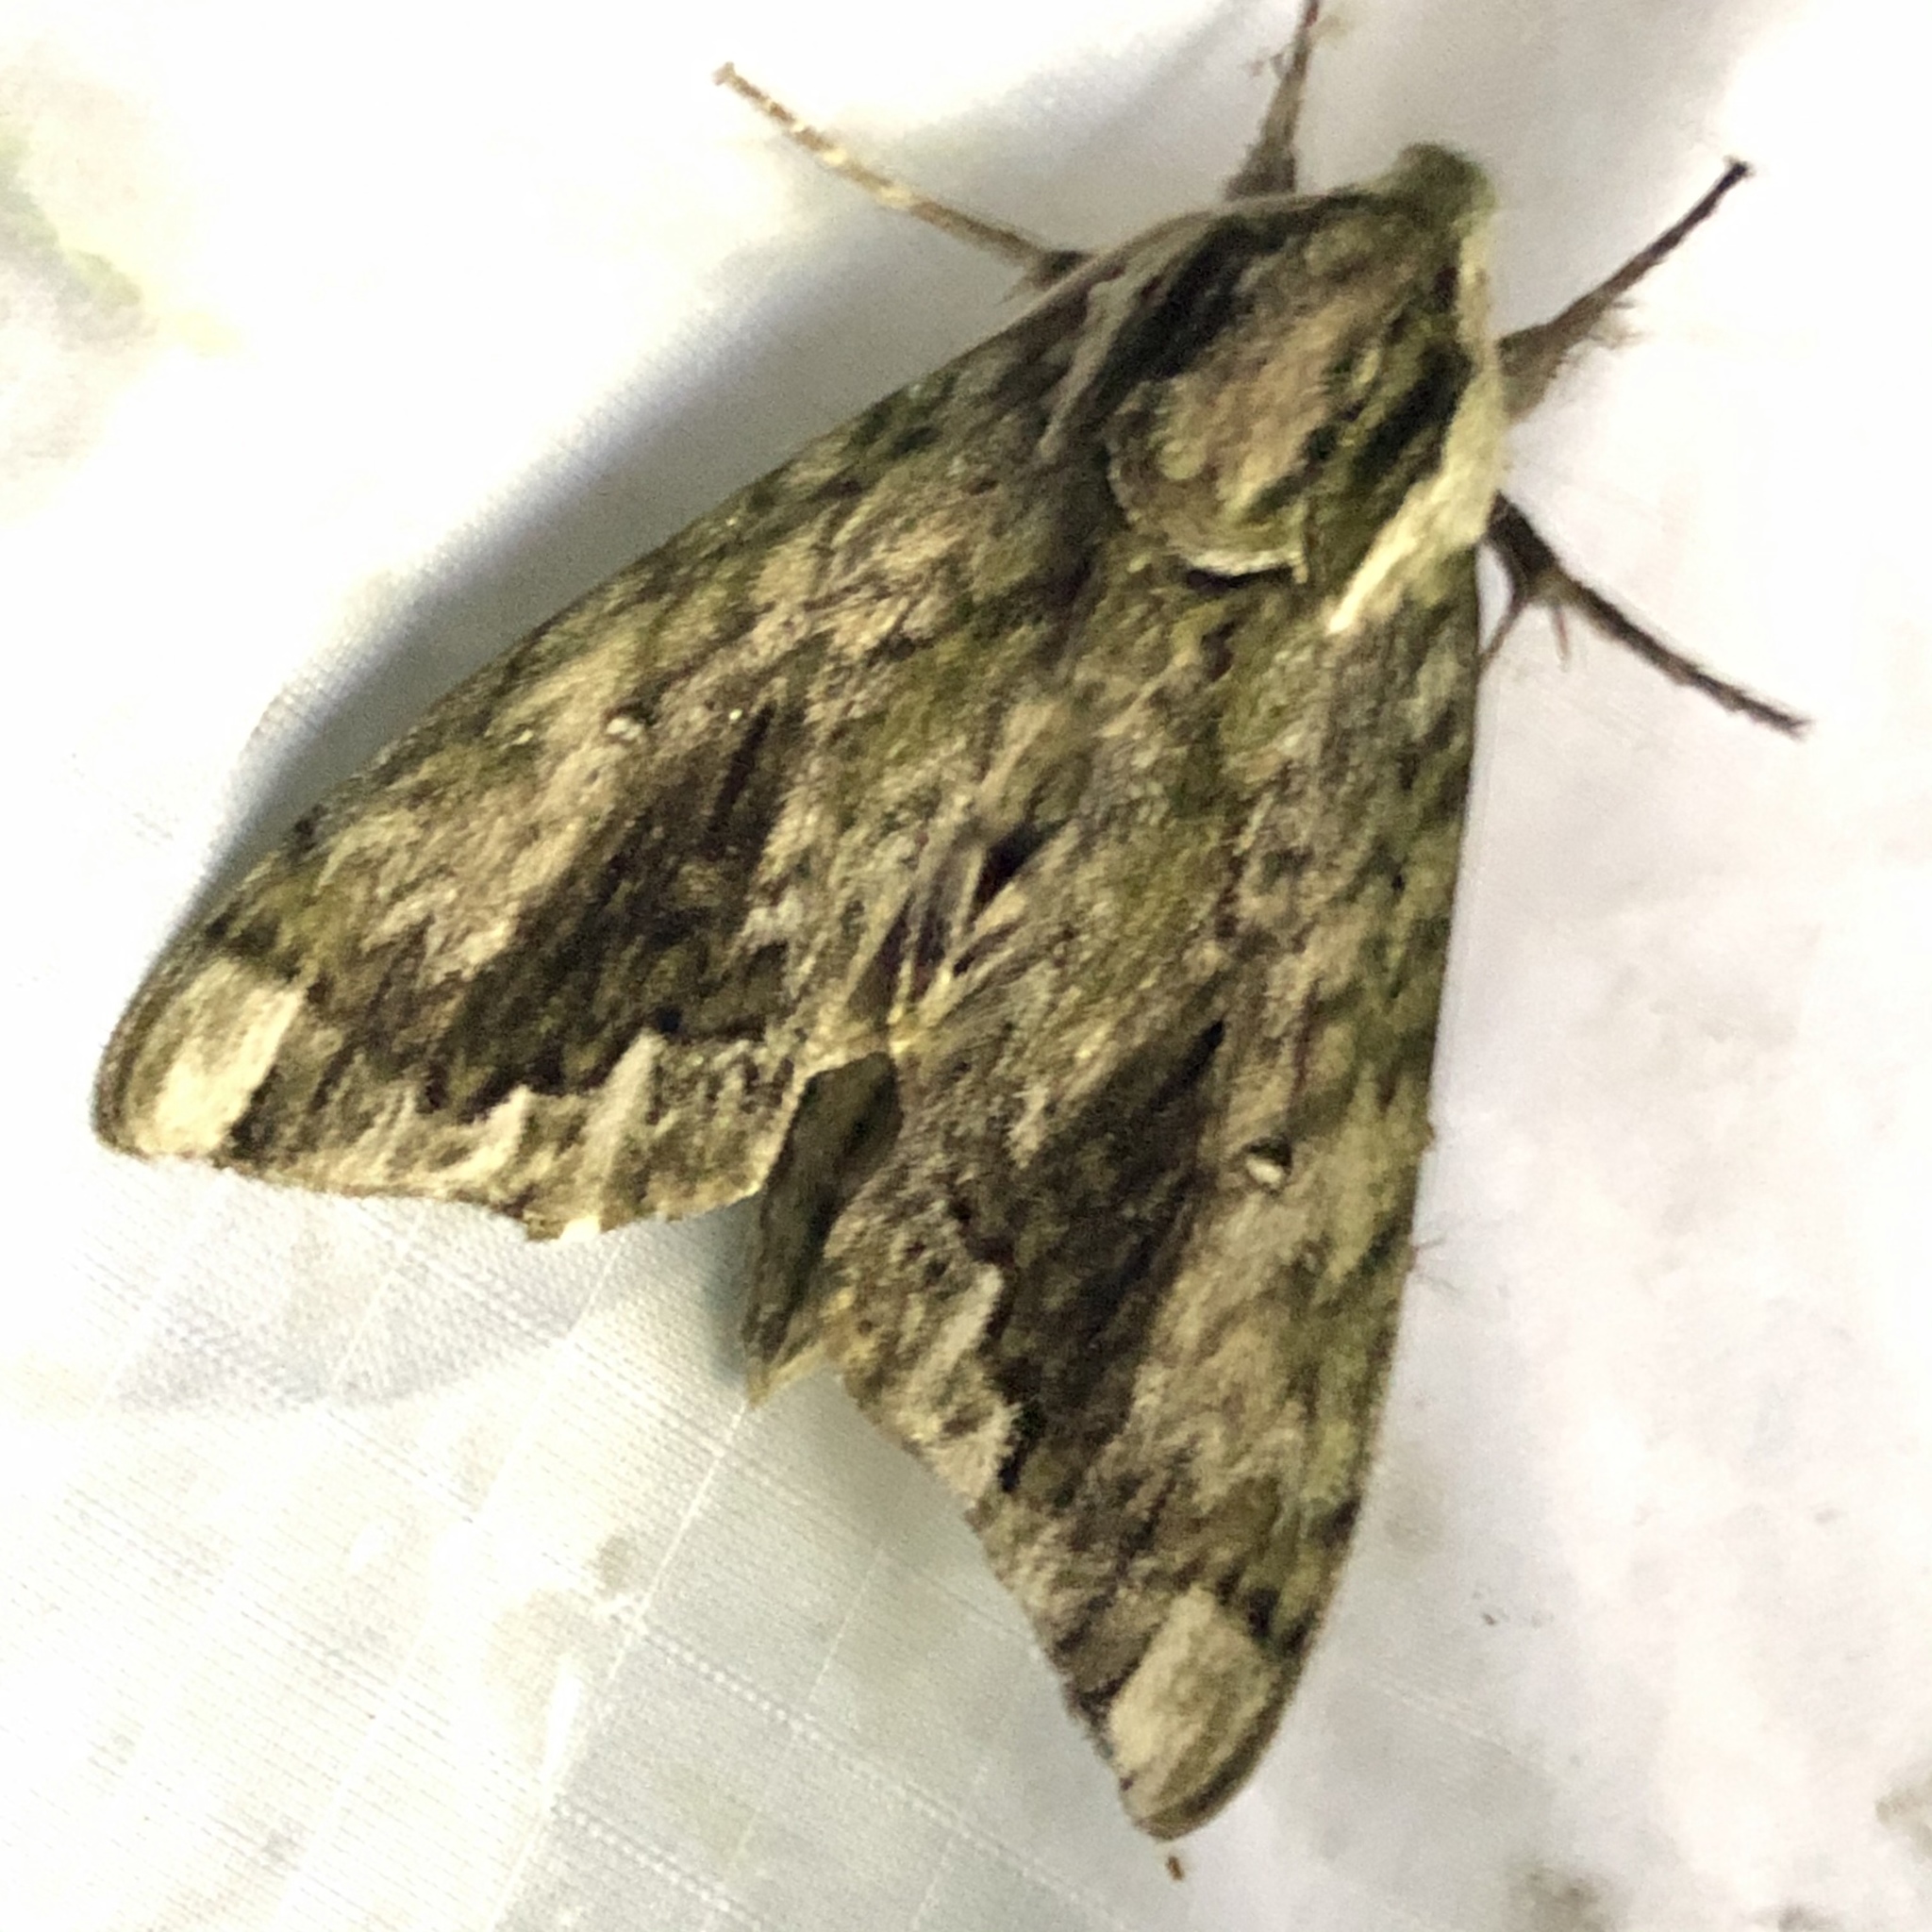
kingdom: Animalia
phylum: Arthropoda
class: Insecta
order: Lepidoptera
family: Sphingidae
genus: Ceratomia
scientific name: Ceratomia hageni
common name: Hagen's sphinx
